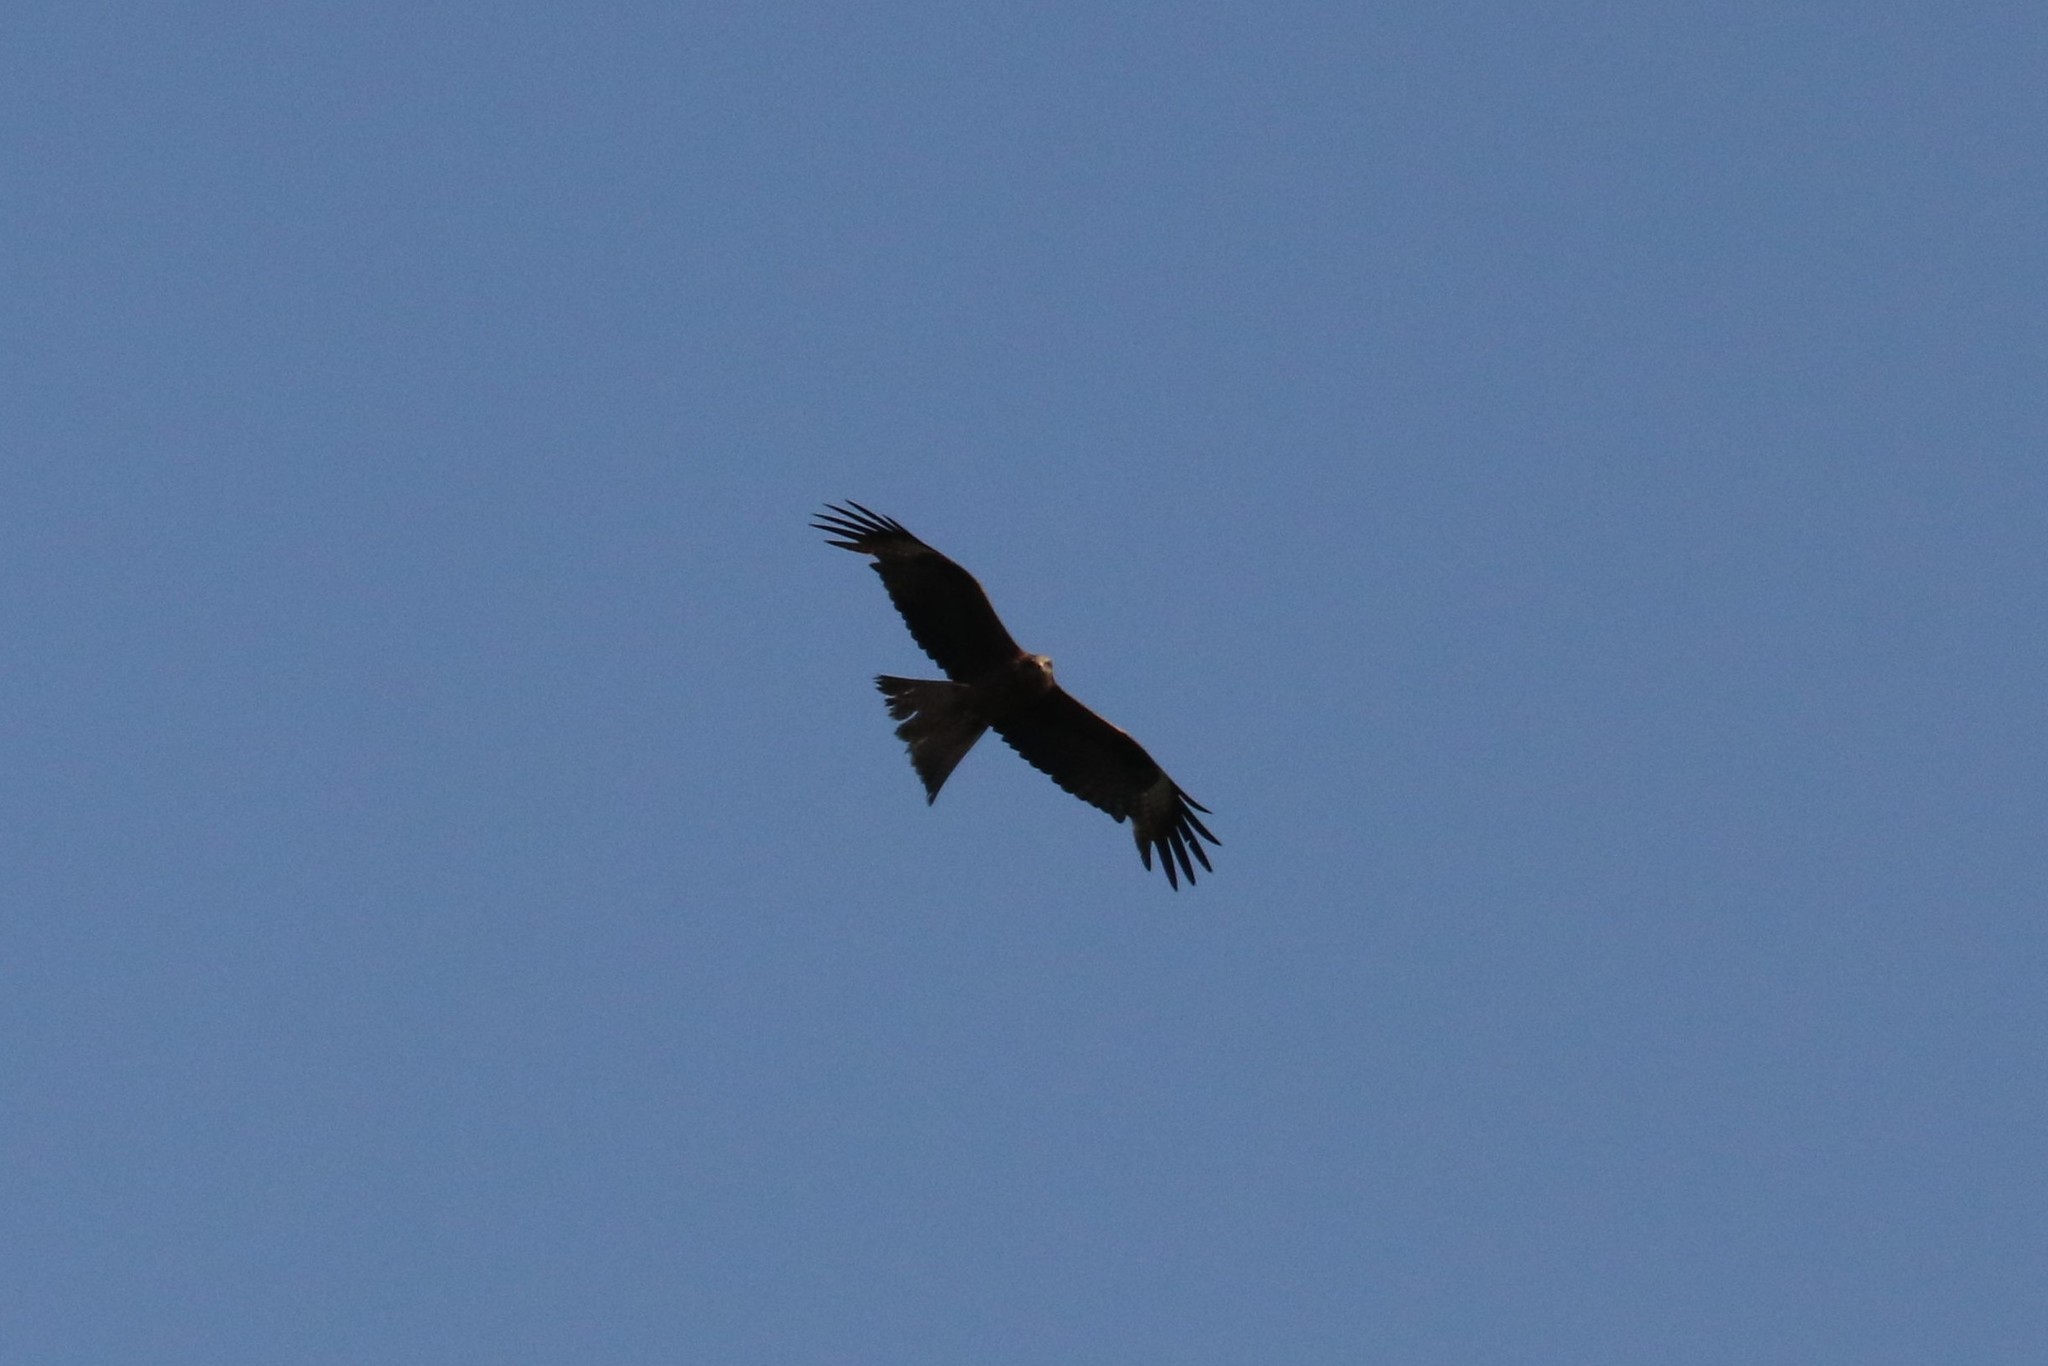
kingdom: Animalia
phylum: Chordata
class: Aves
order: Accipitriformes
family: Accipitridae
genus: Milvus
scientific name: Milvus migrans
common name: Black kite
